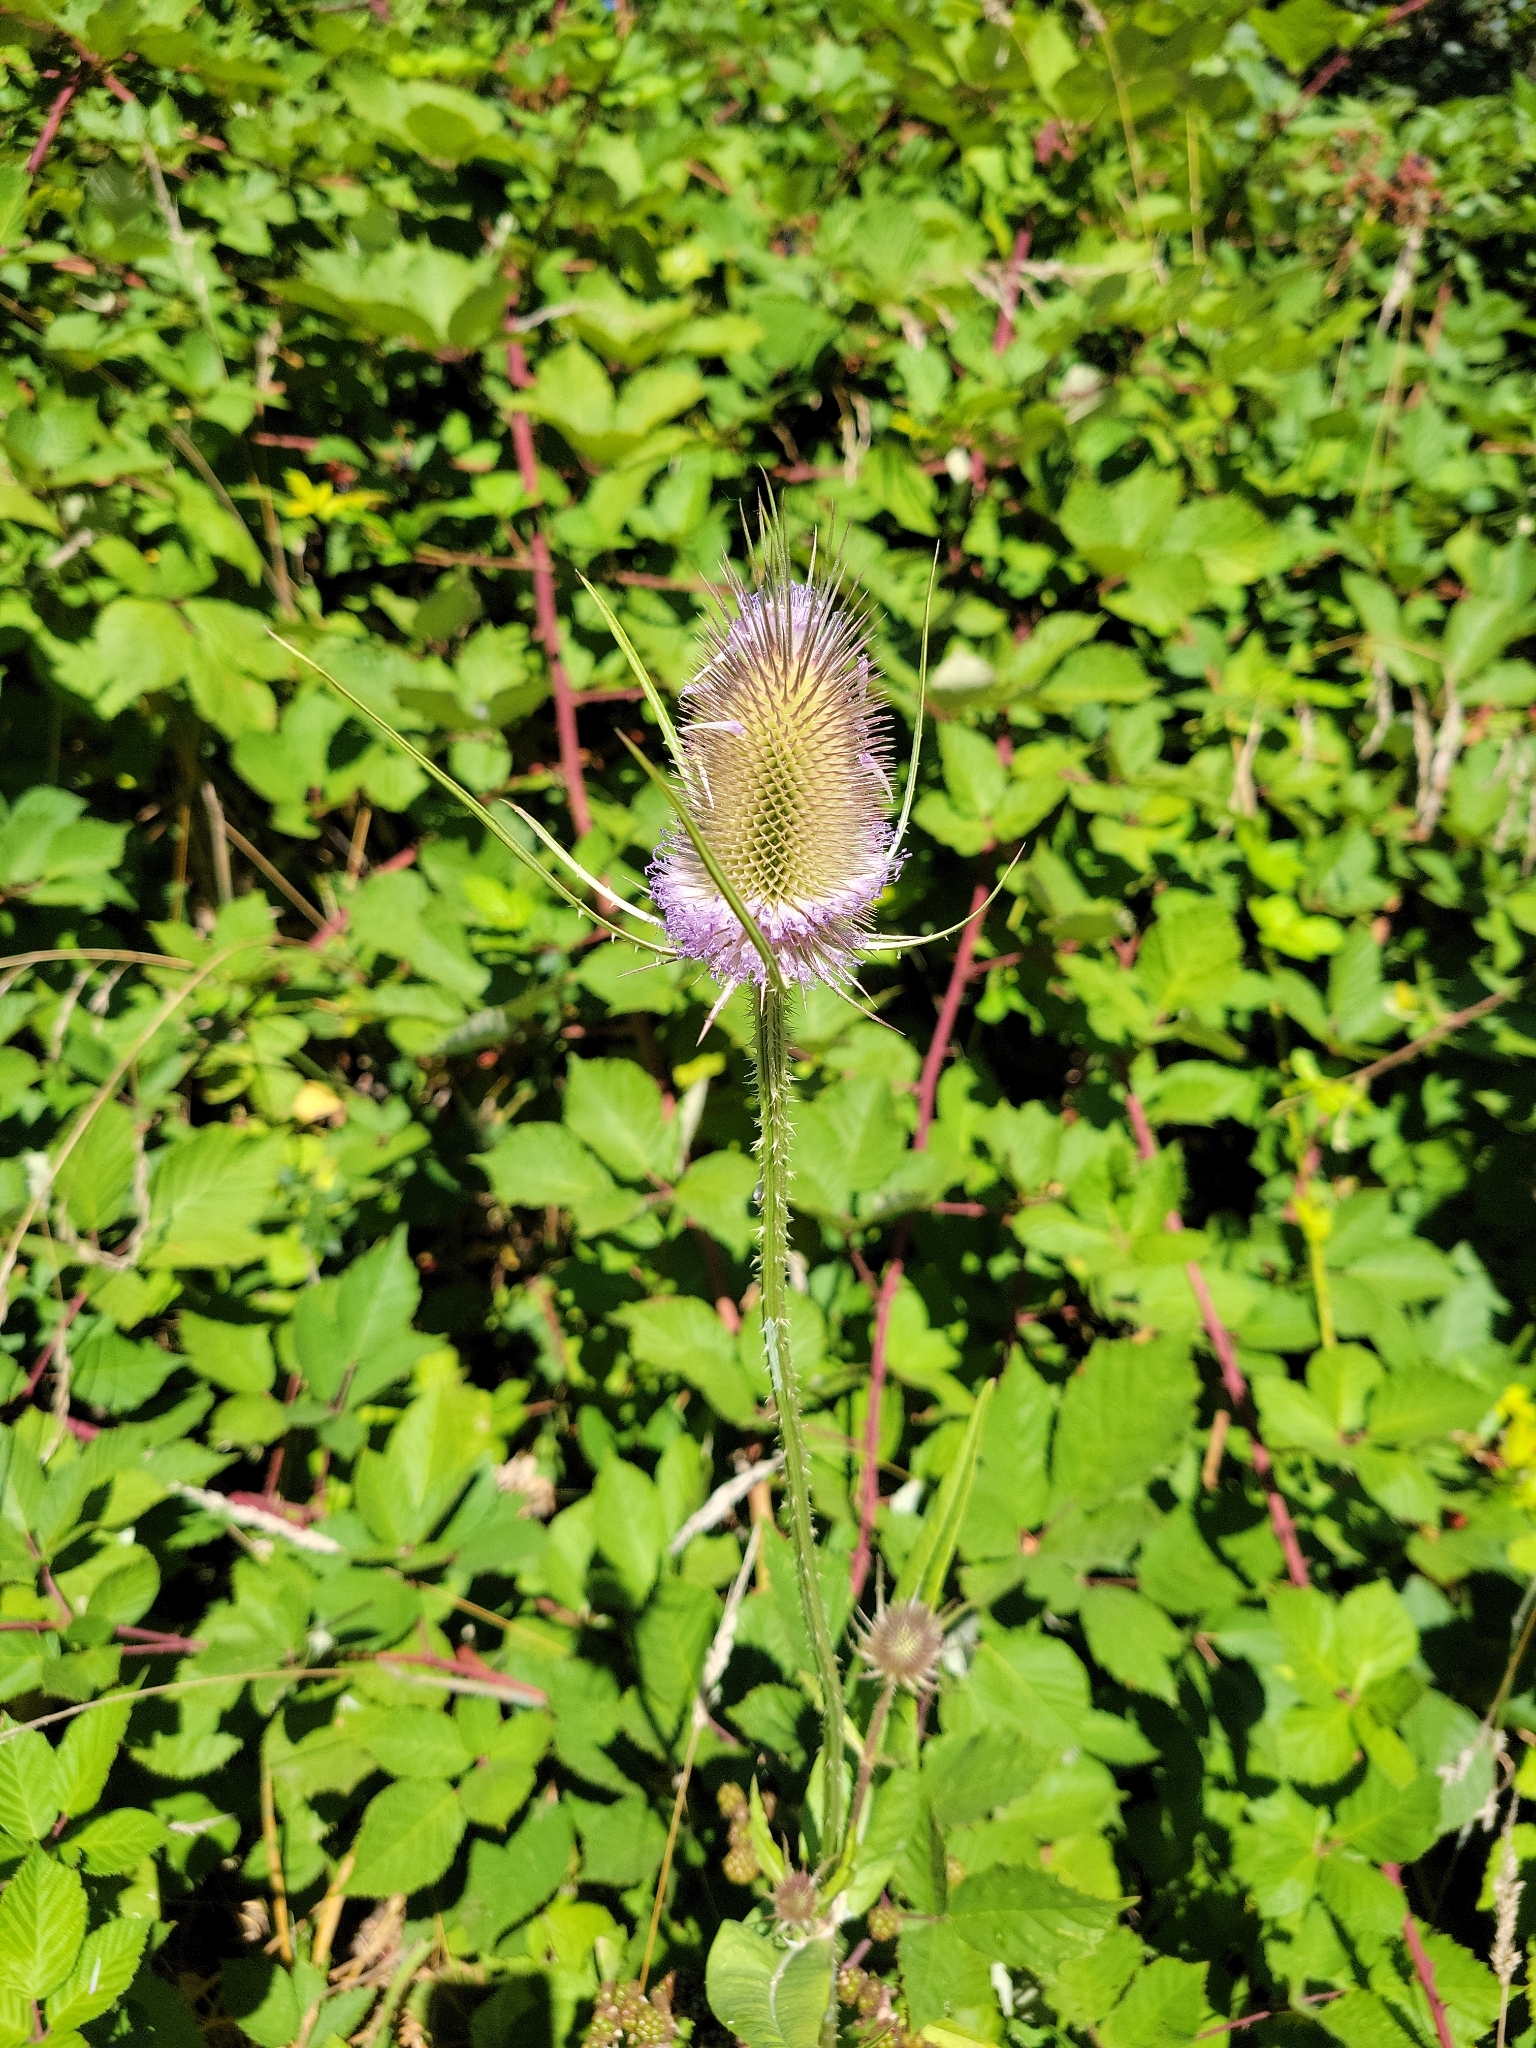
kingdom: Plantae
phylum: Tracheophyta
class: Magnoliopsida
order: Dipsacales
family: Caprifoliaceae
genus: Dipsacus
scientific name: Dipsacus fullonum
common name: Teasel
